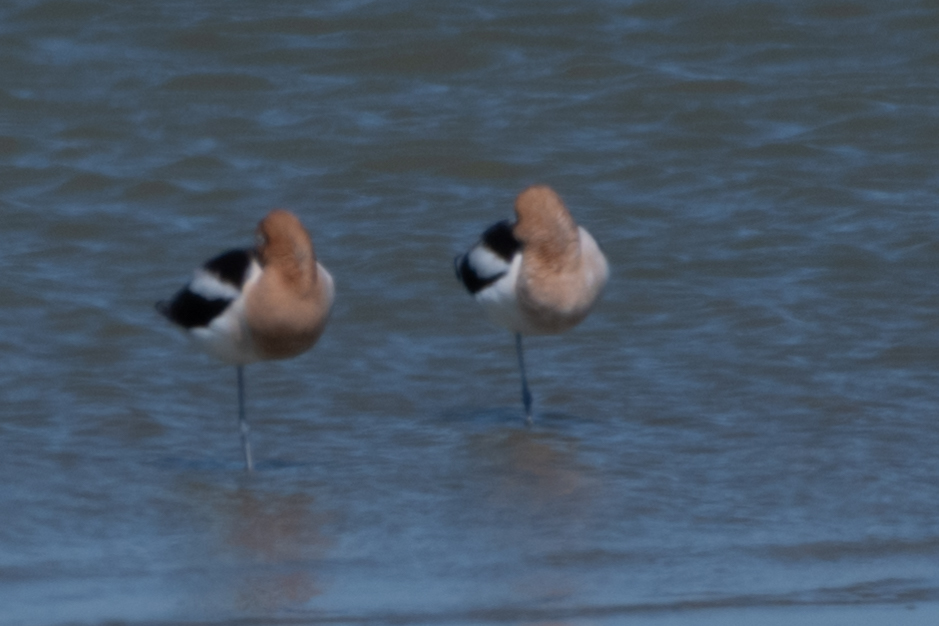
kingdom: Animalia
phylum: Chordata
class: Aves
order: Charadriiformes
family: Recurvirostridae
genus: Recurvirostra
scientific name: Recurvirostra americana
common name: American avocet
